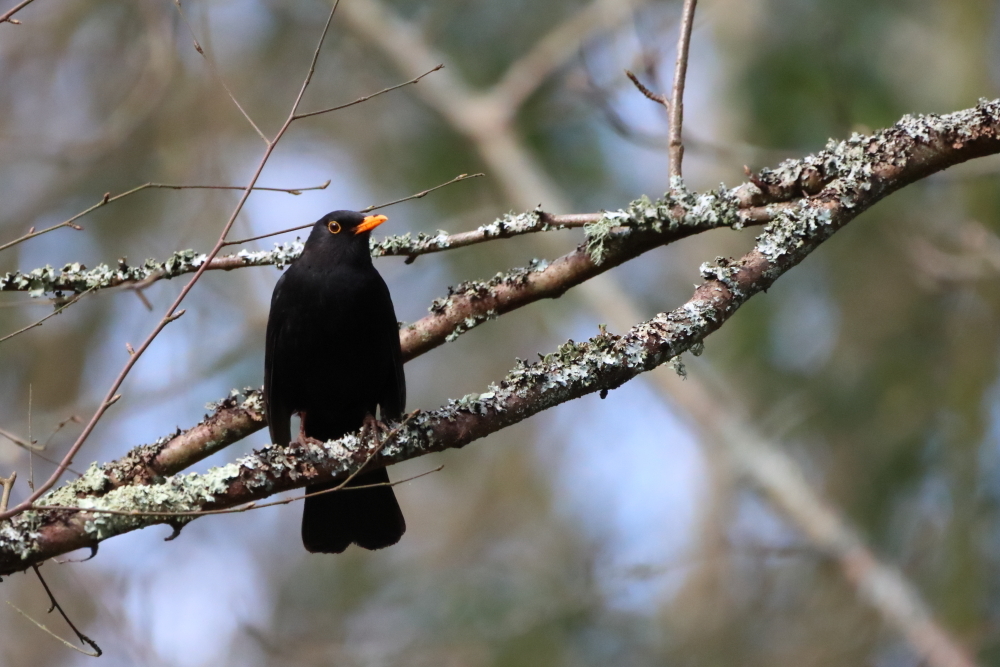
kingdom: Animalia
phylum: Chordata
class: Aves
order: Passeriformes
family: Turdidae
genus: Turdus
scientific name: Turdus merula
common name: Common blackbird
